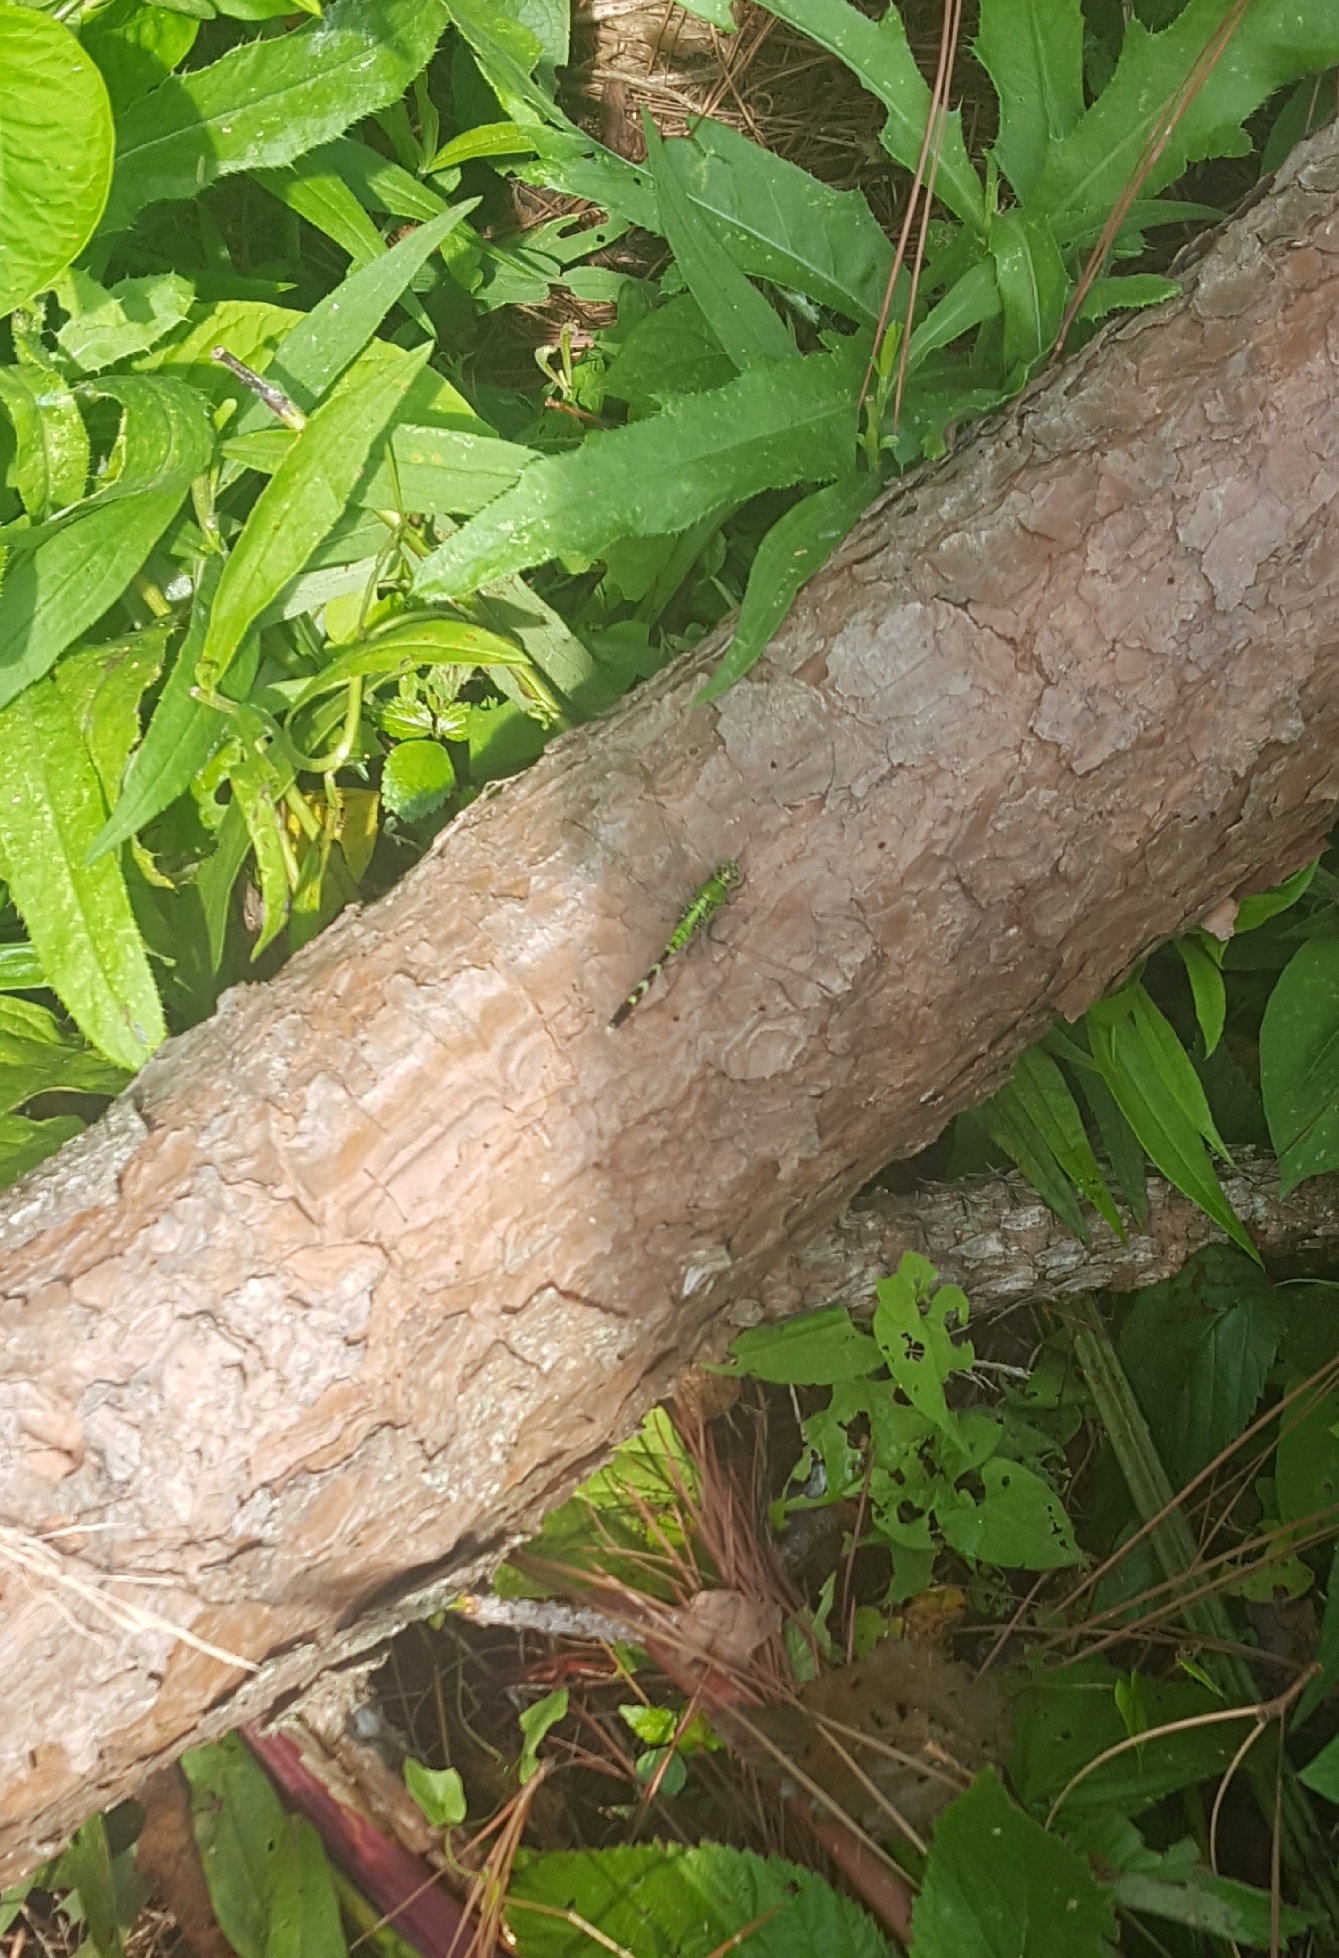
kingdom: Animalia
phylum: Arthropoda
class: Insecta
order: Odonata
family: Libellulidae
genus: Erythemis
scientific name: Erythemis simplicicollis
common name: Eastern pondhawk
